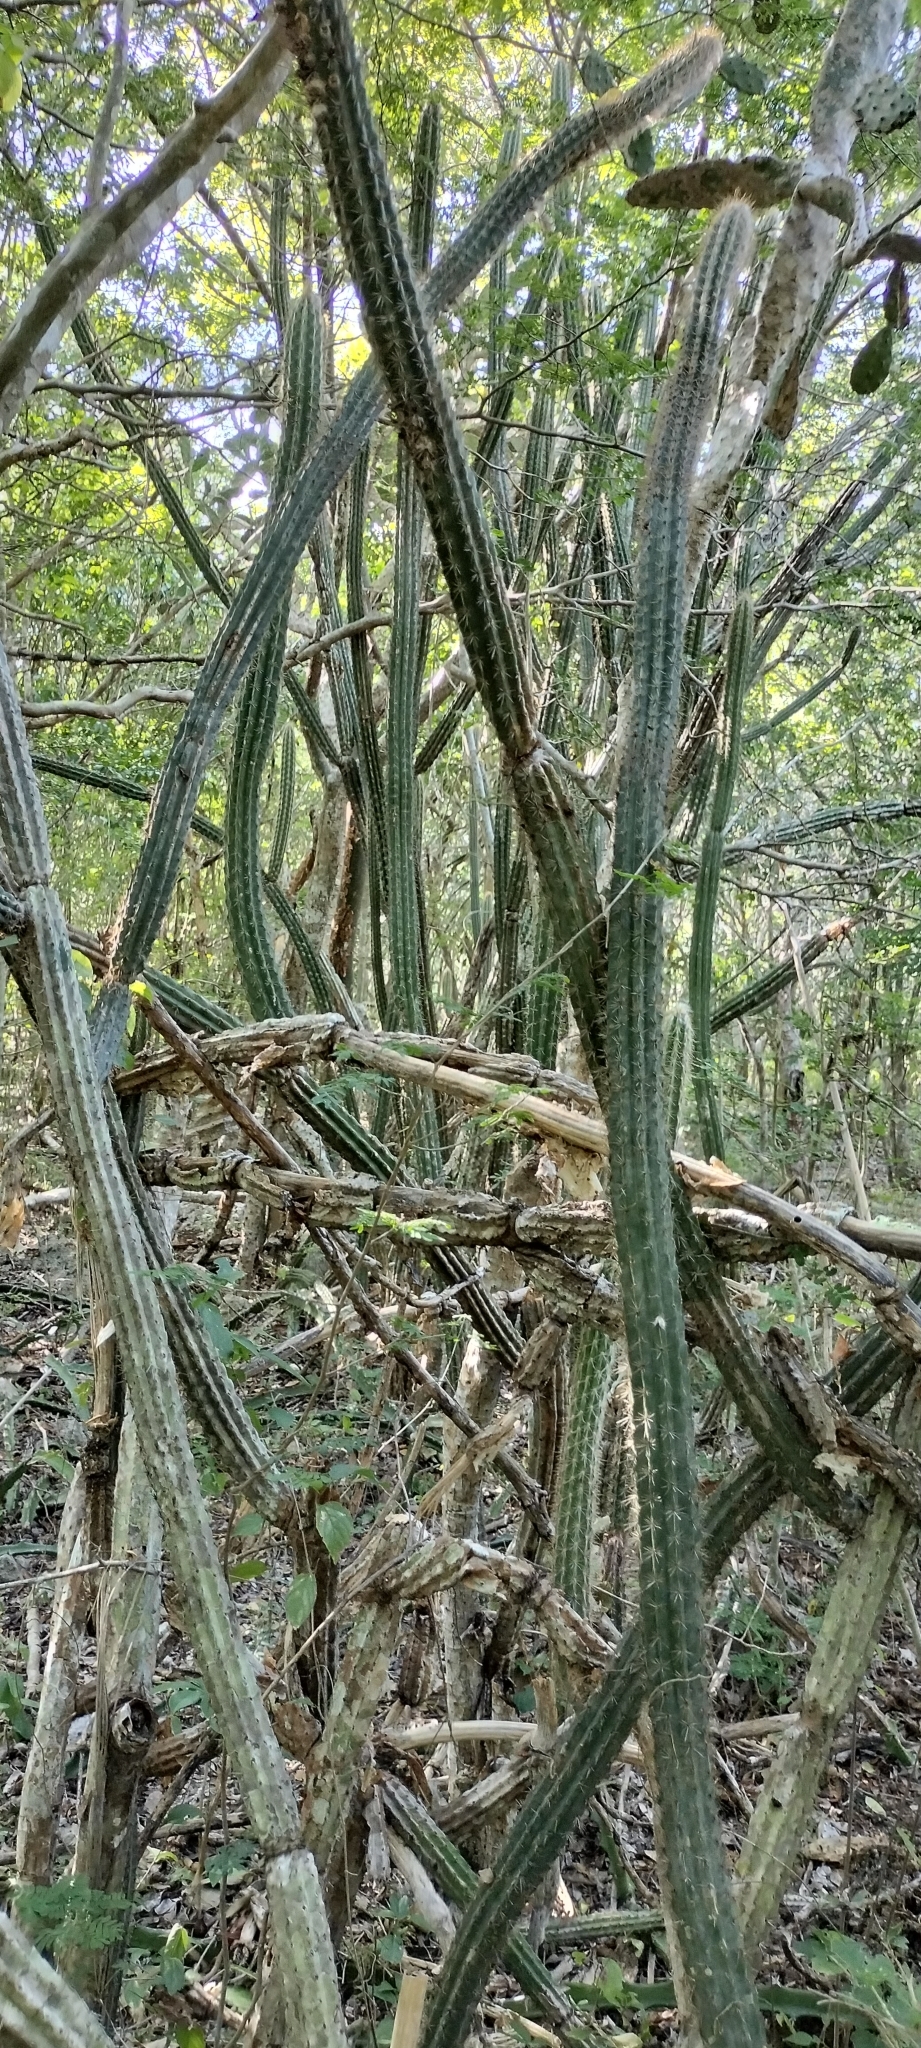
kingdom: Plantae
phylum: Tracheophyta
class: Magnoliopsida
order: Caryophyllales
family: Cactaceae
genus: Pilosocereus
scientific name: Pilosocereus gaumeri
